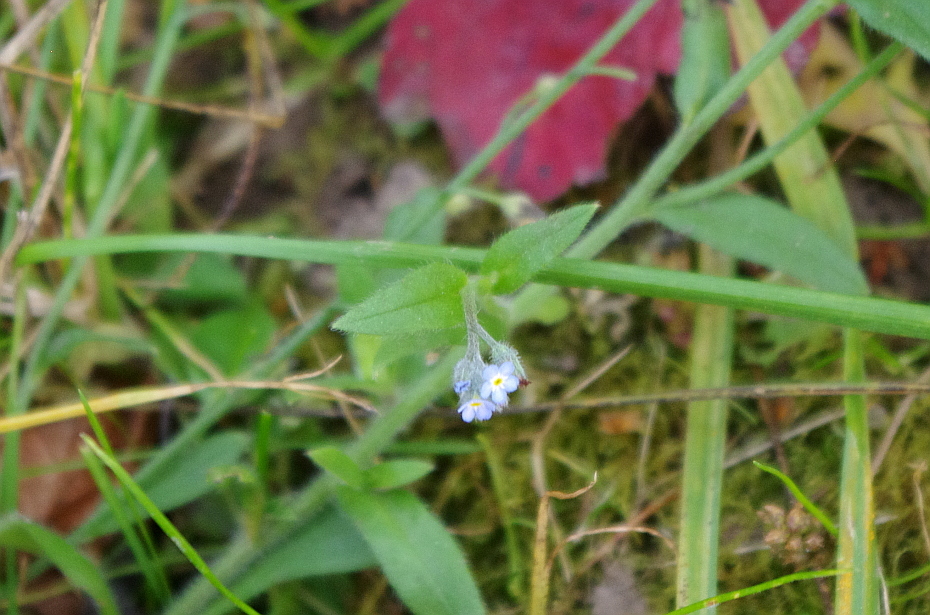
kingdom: Plantae
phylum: Tracheophyta
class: Magnoliopsida
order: Boraginales
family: Boraginaceae
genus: Myosotis
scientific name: Myosotis arvensis
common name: Field forget-me-not
